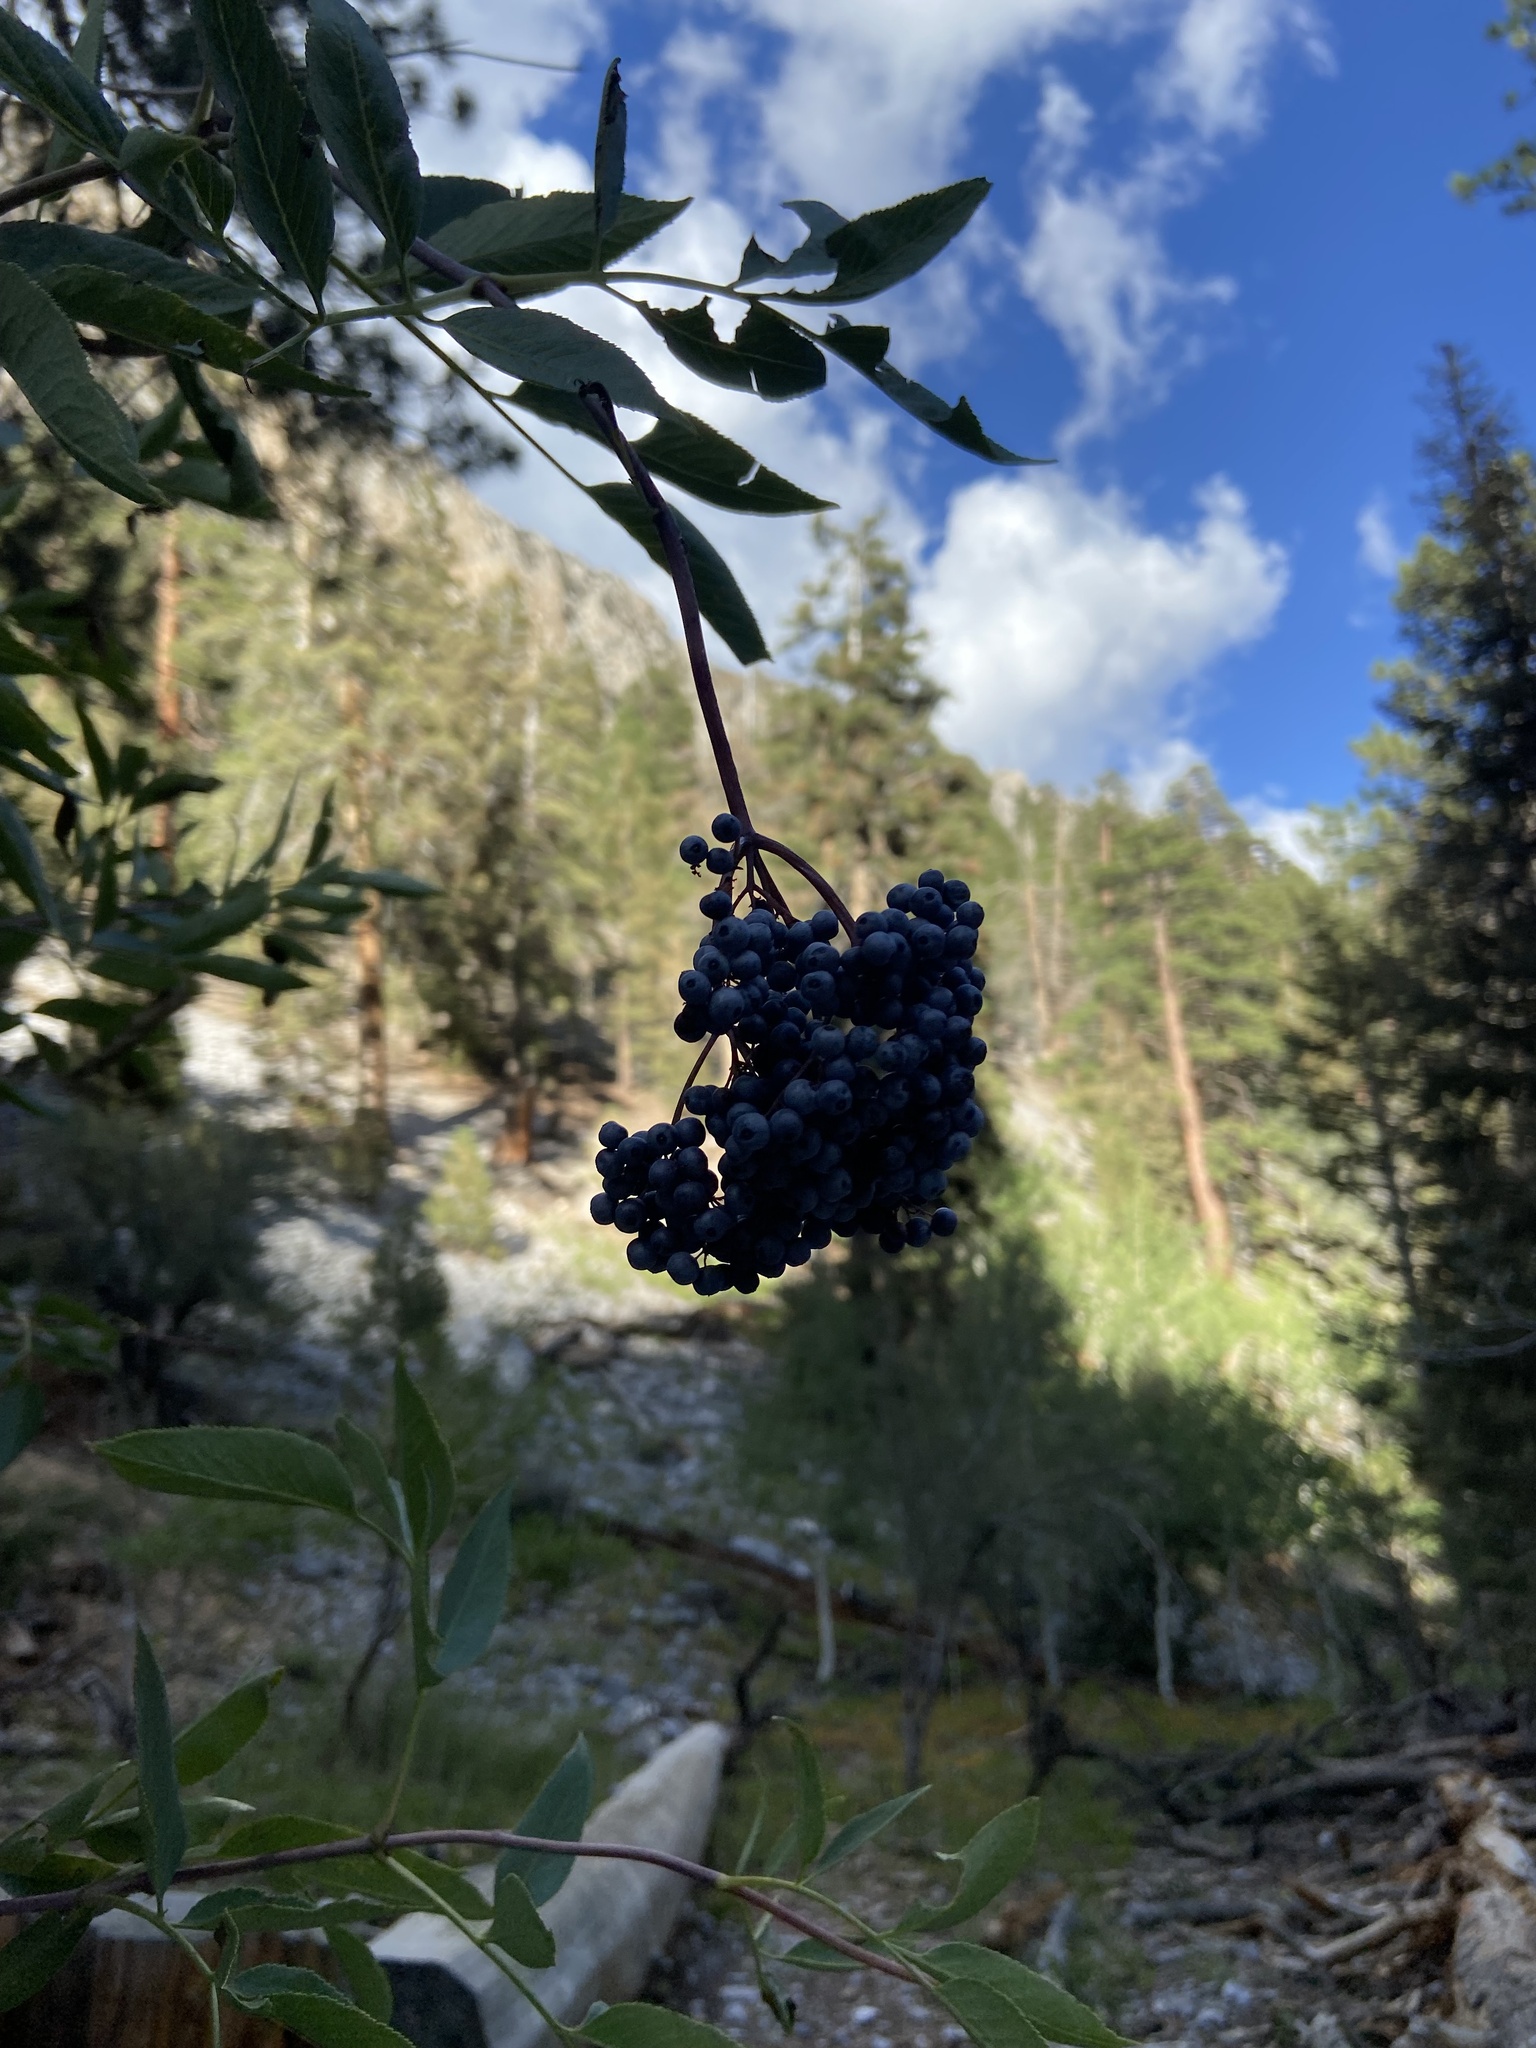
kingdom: Plantae
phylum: Tracheophyta
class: Magnoliopsida
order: Dipsacales
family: Viburnaceae
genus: Sambucus
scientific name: Sambucus cerulea
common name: Blue elder
